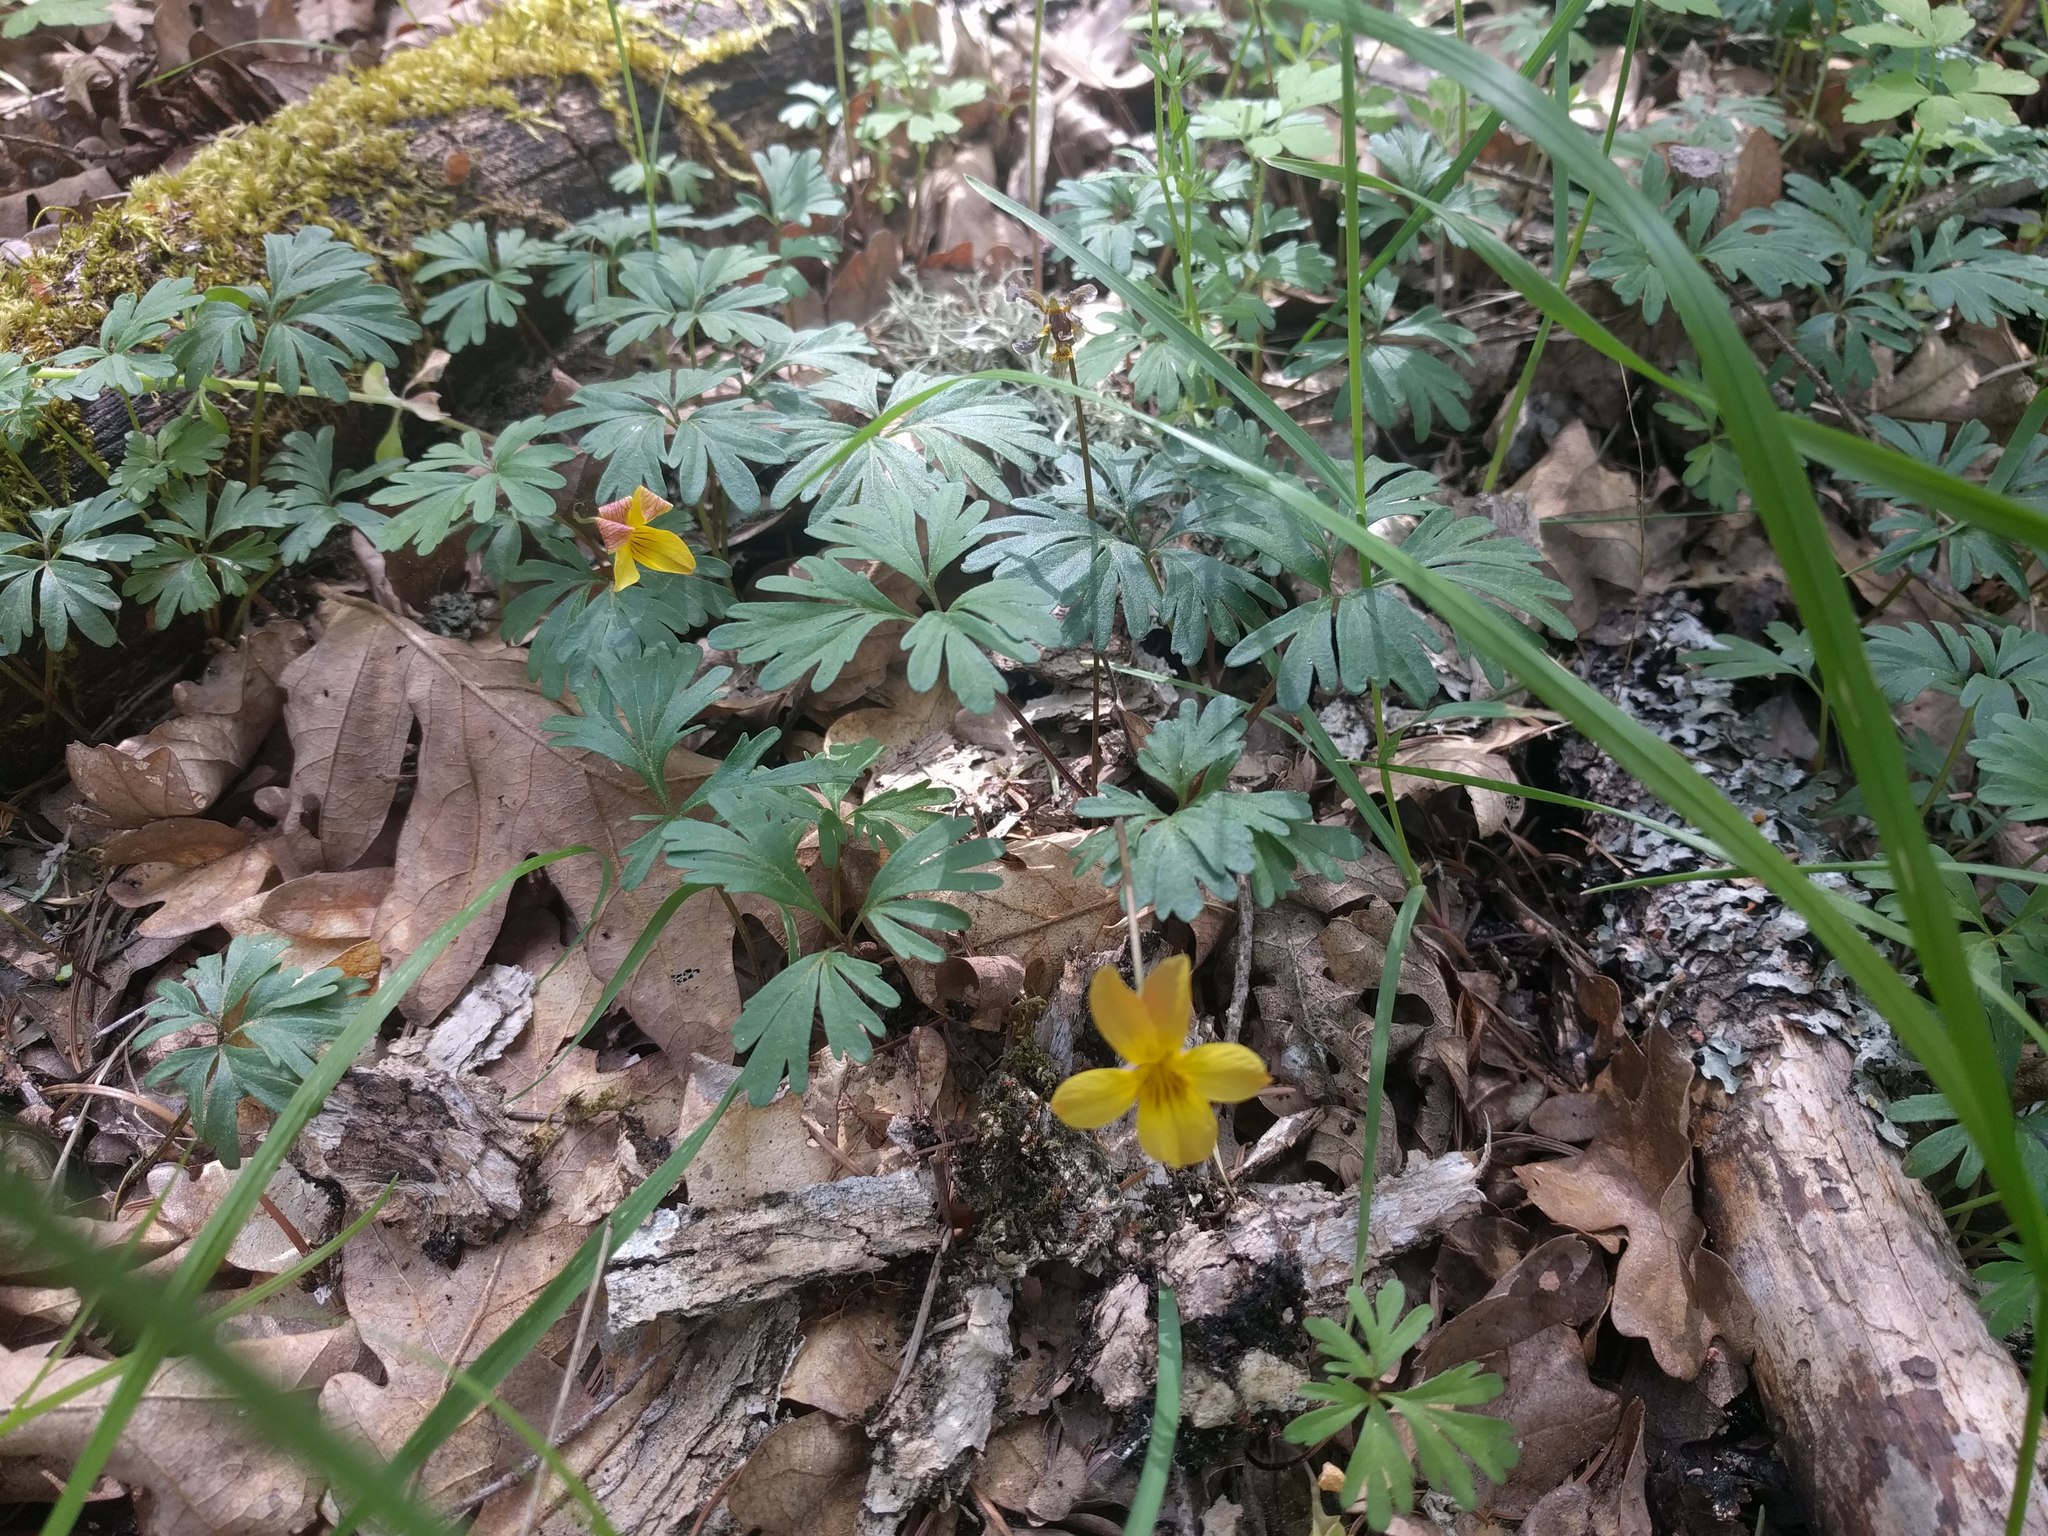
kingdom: Plantae
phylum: Tracheophyta
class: Magnoliopsida
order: Malpighiales
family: Violaceae
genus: Viola
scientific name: Viola sheltonii
